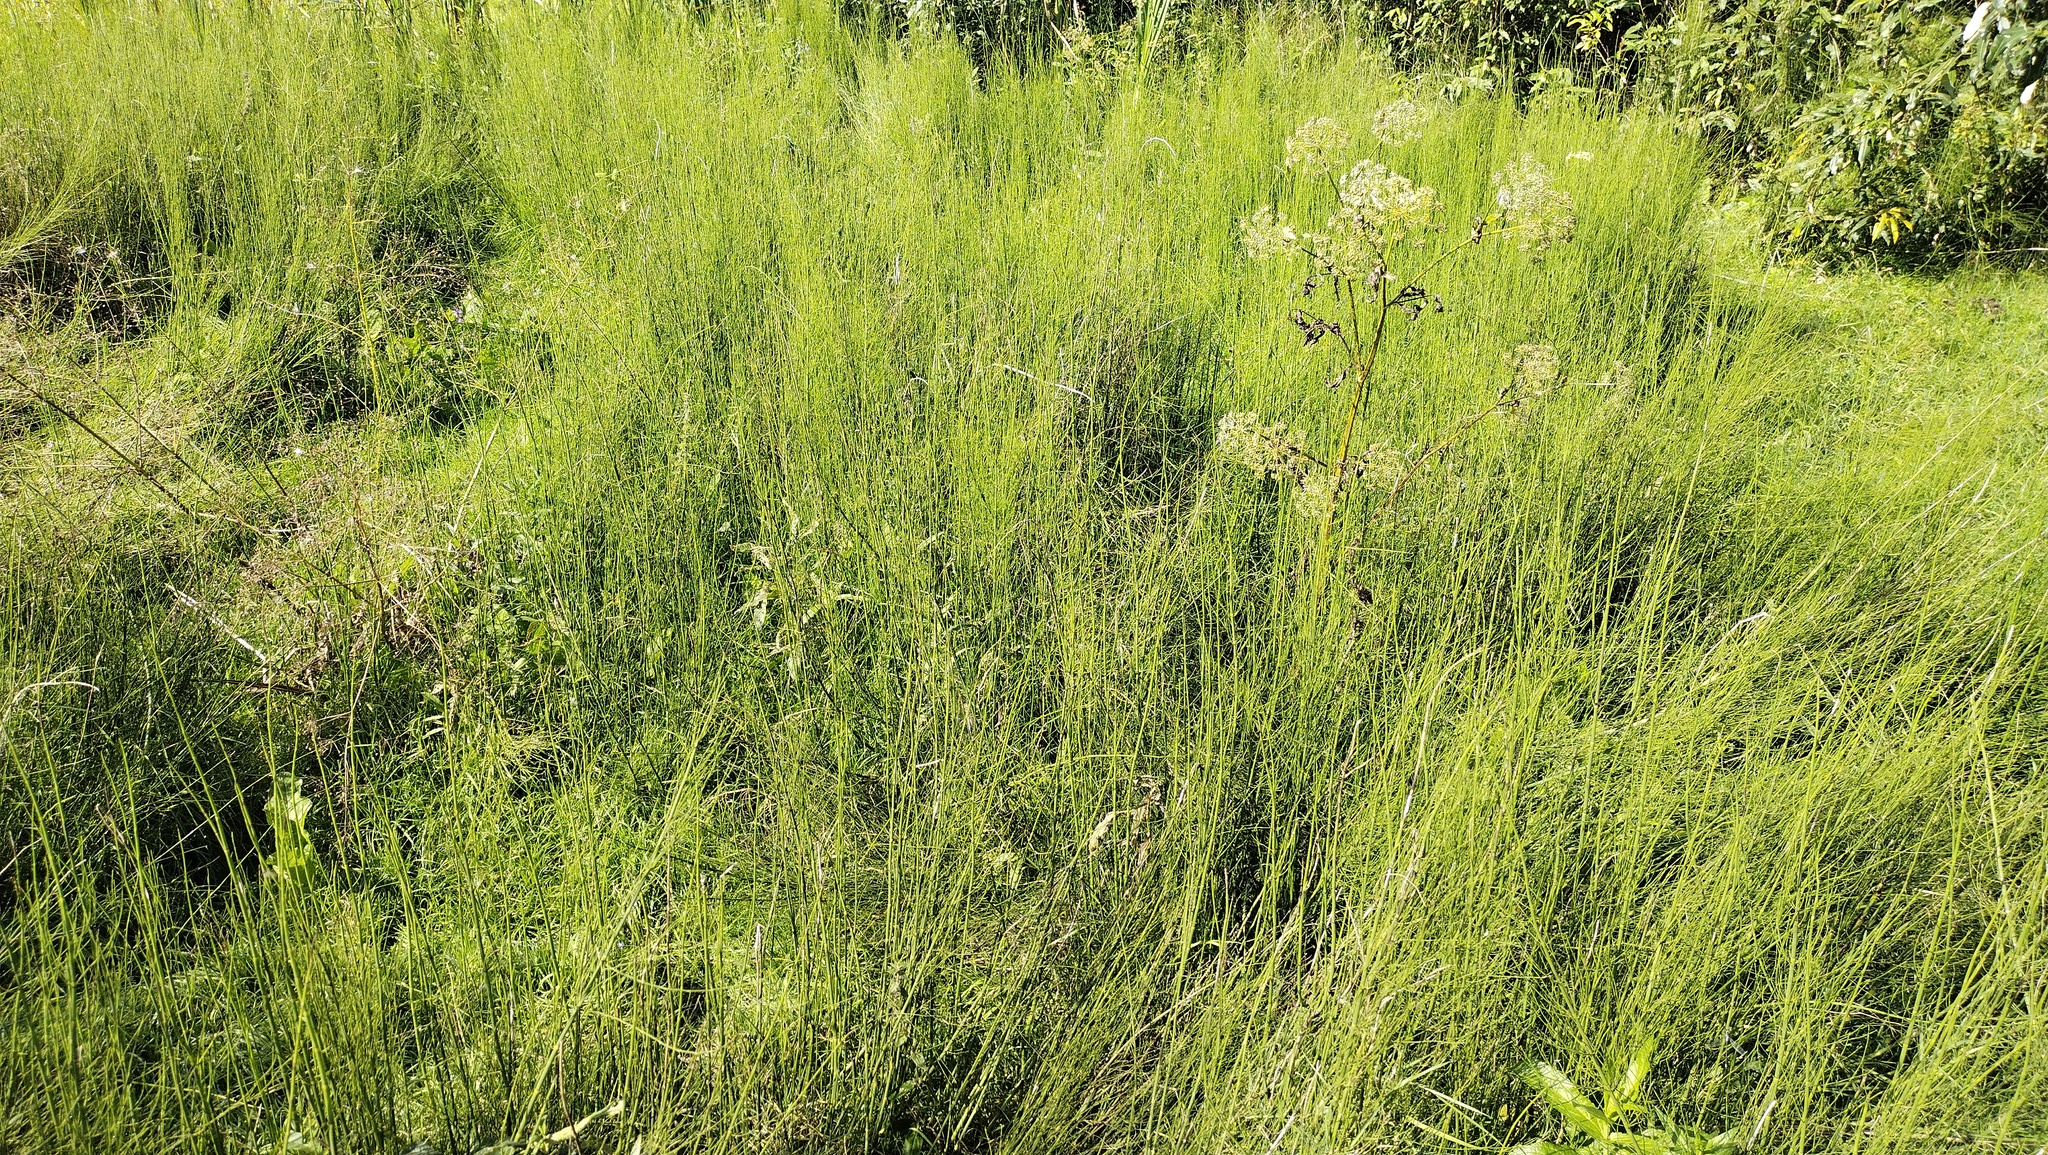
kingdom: Plantae
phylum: Tracheophyta
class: Polypodiopsida
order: Equisetales
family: Equisetaceae
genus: Equisetum
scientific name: Equisetum fluviatile
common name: Water horsetail
